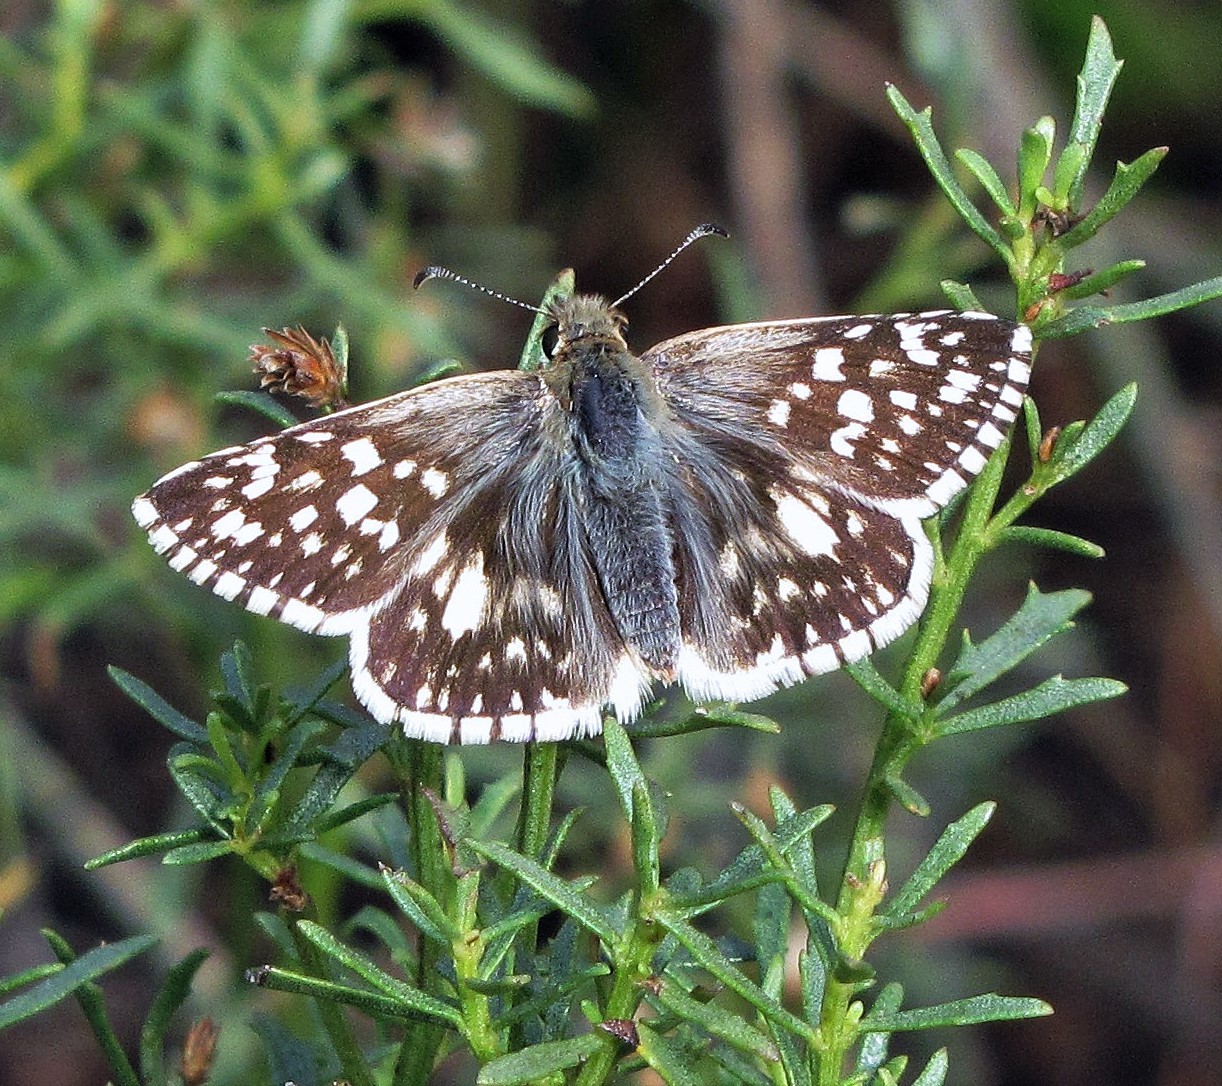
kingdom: Animalia
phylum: Arthropoda
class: Insecta
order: Lepidoptera
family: Hesperiidae
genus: Heliopetes
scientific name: Heliopetes americanus
